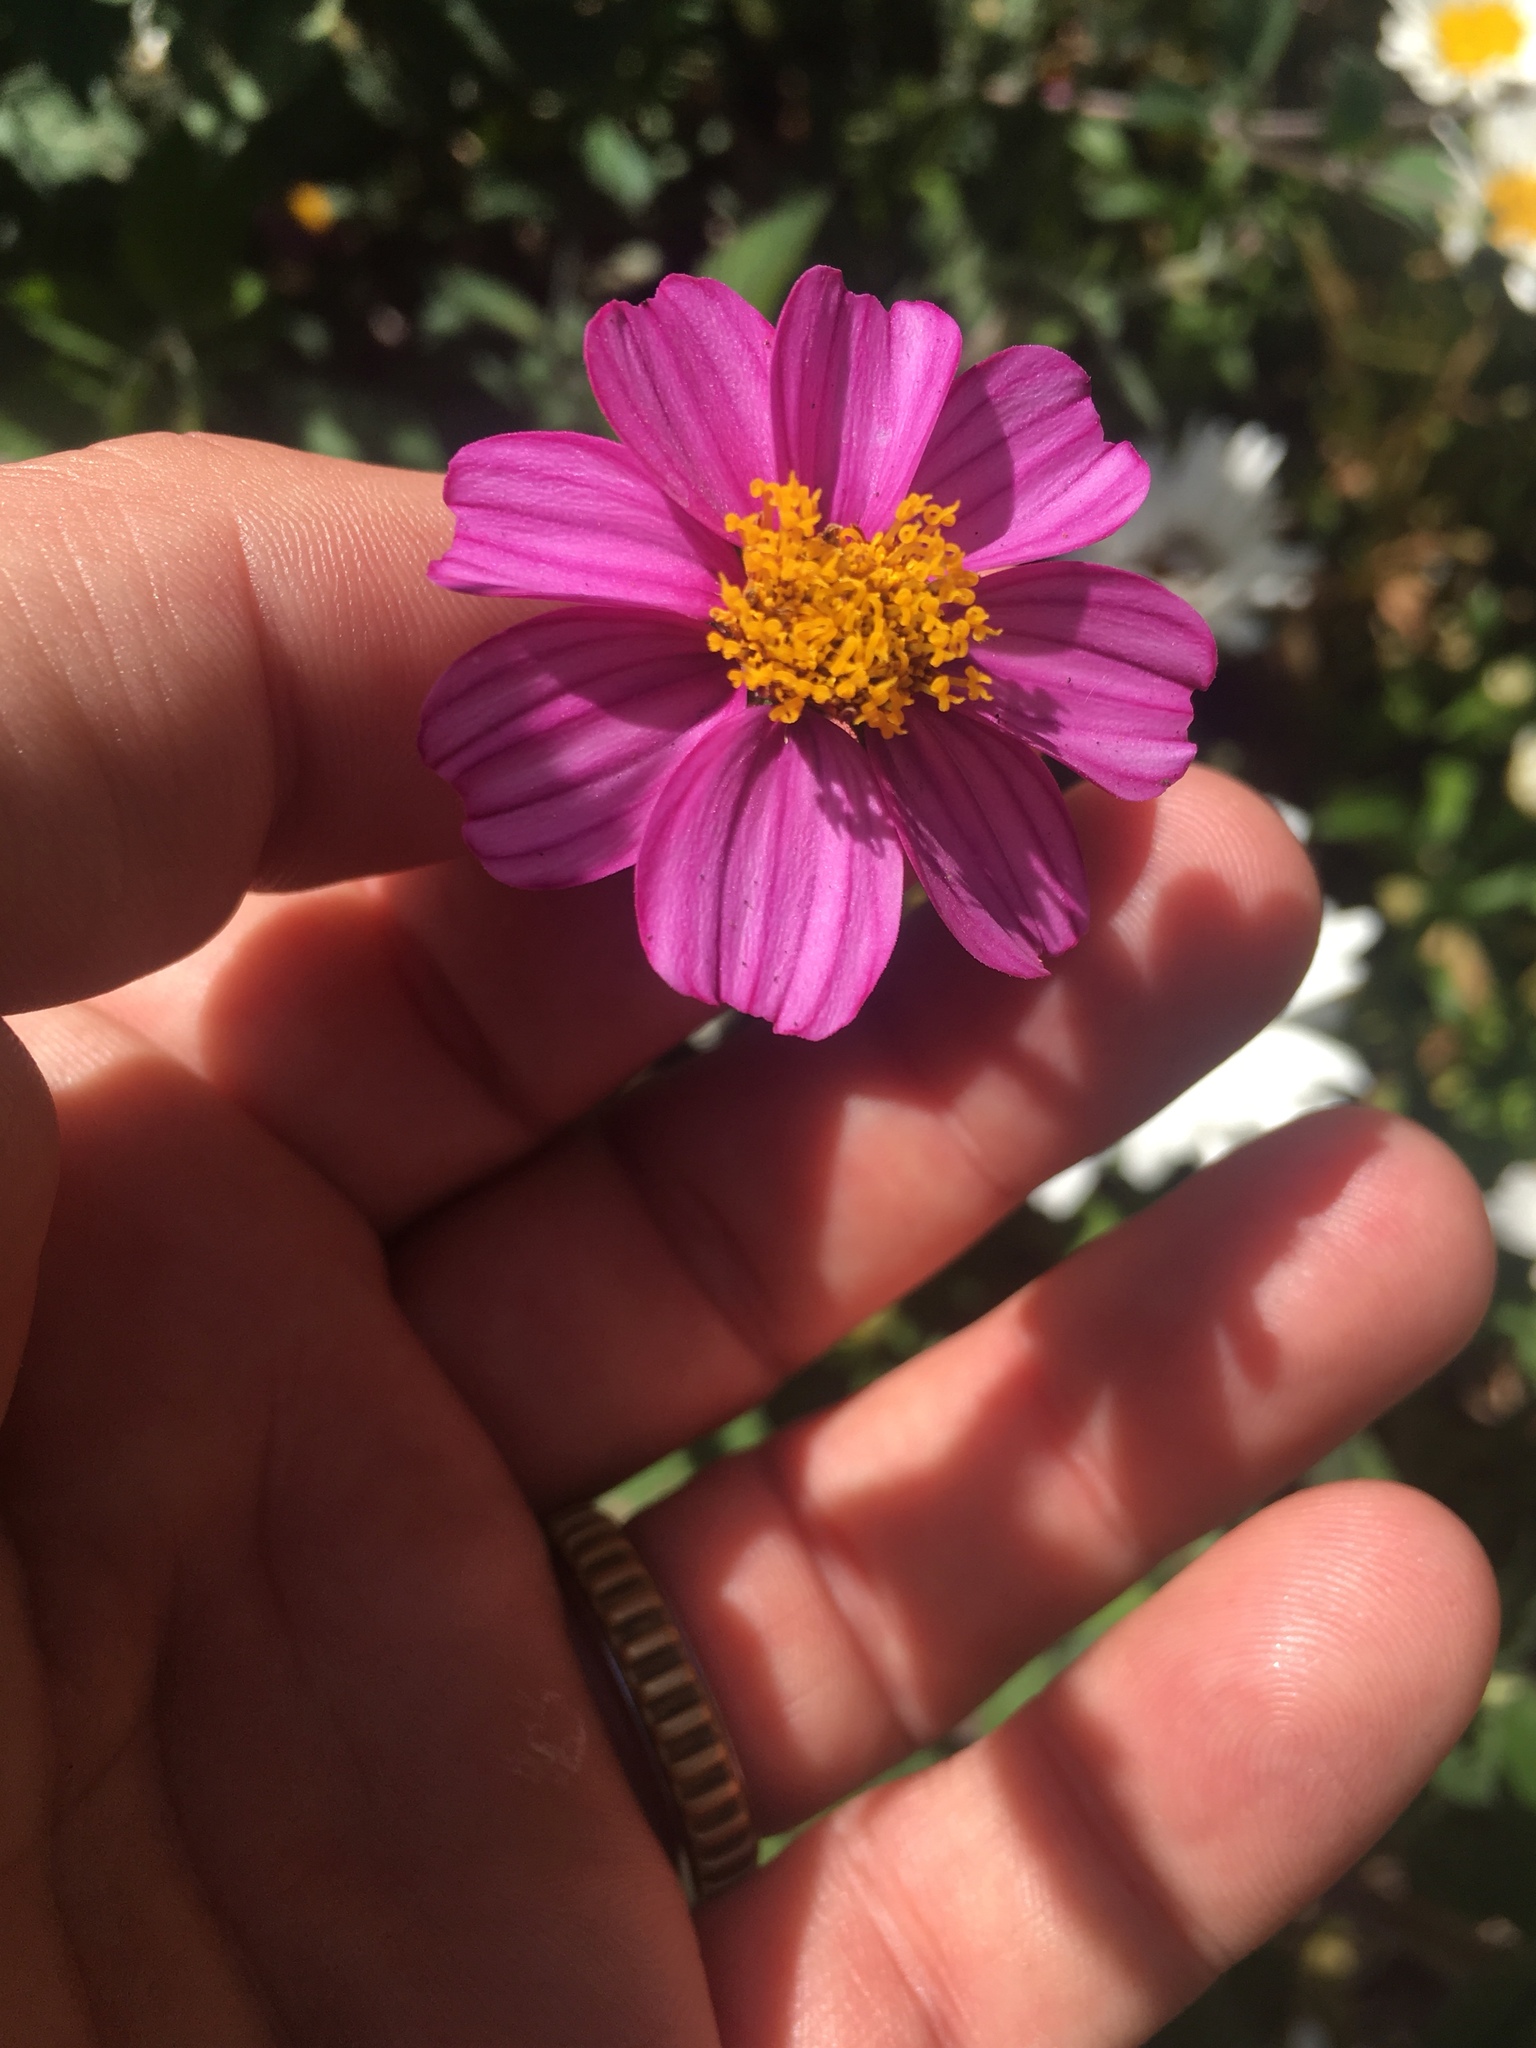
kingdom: Plantae
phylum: Tracheophyta
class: Magnoliopsida
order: Asterales
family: Asteraceae
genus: Cosmos
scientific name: Cosmos bipinnatus
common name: Garden cosmos
